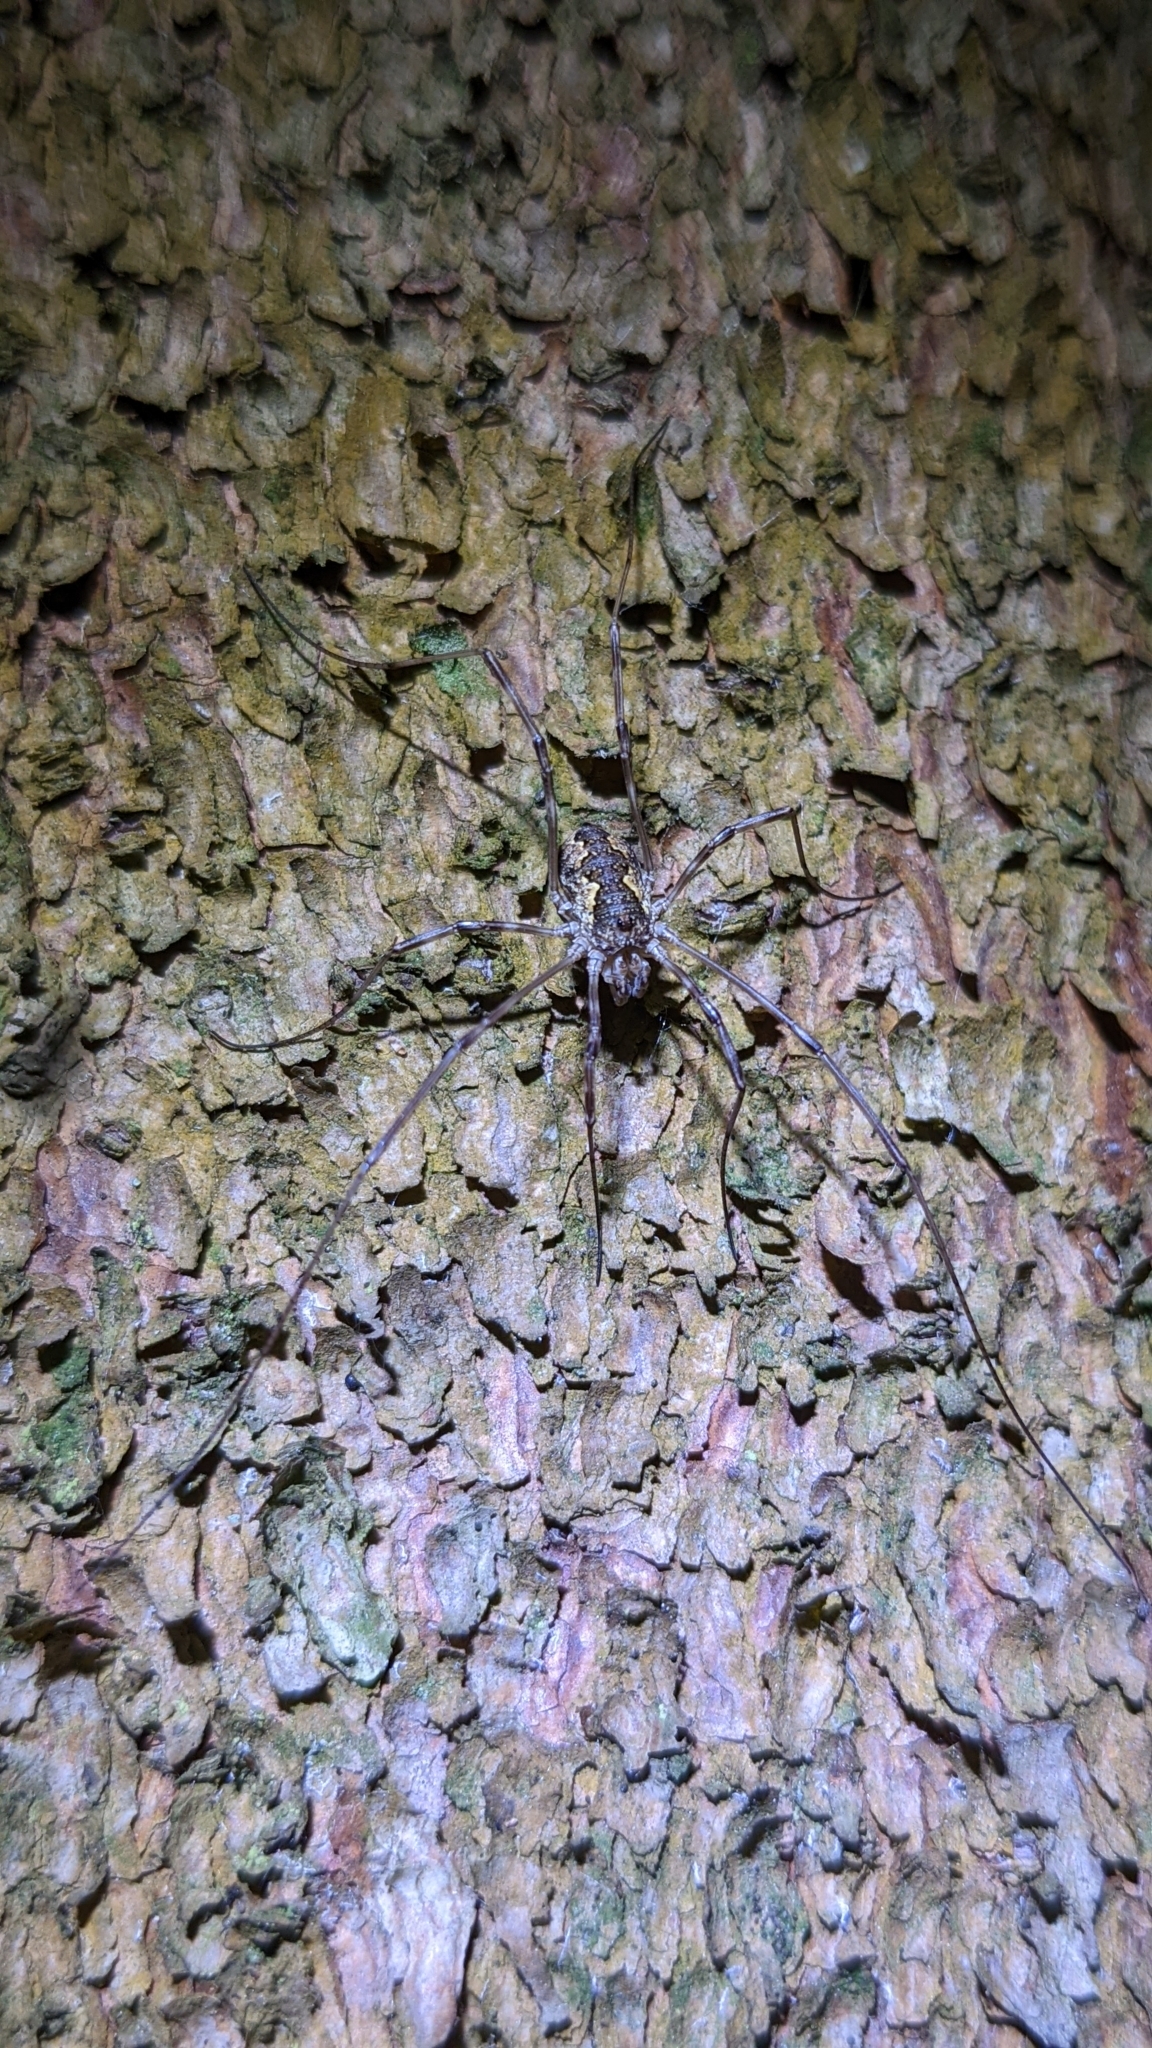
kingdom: Animalia
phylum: Arthropoda
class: Arachnida
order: Opiliones
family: Phalangiidae
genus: Mitopus
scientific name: Mitopus morio
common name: Saddleback harvestman
